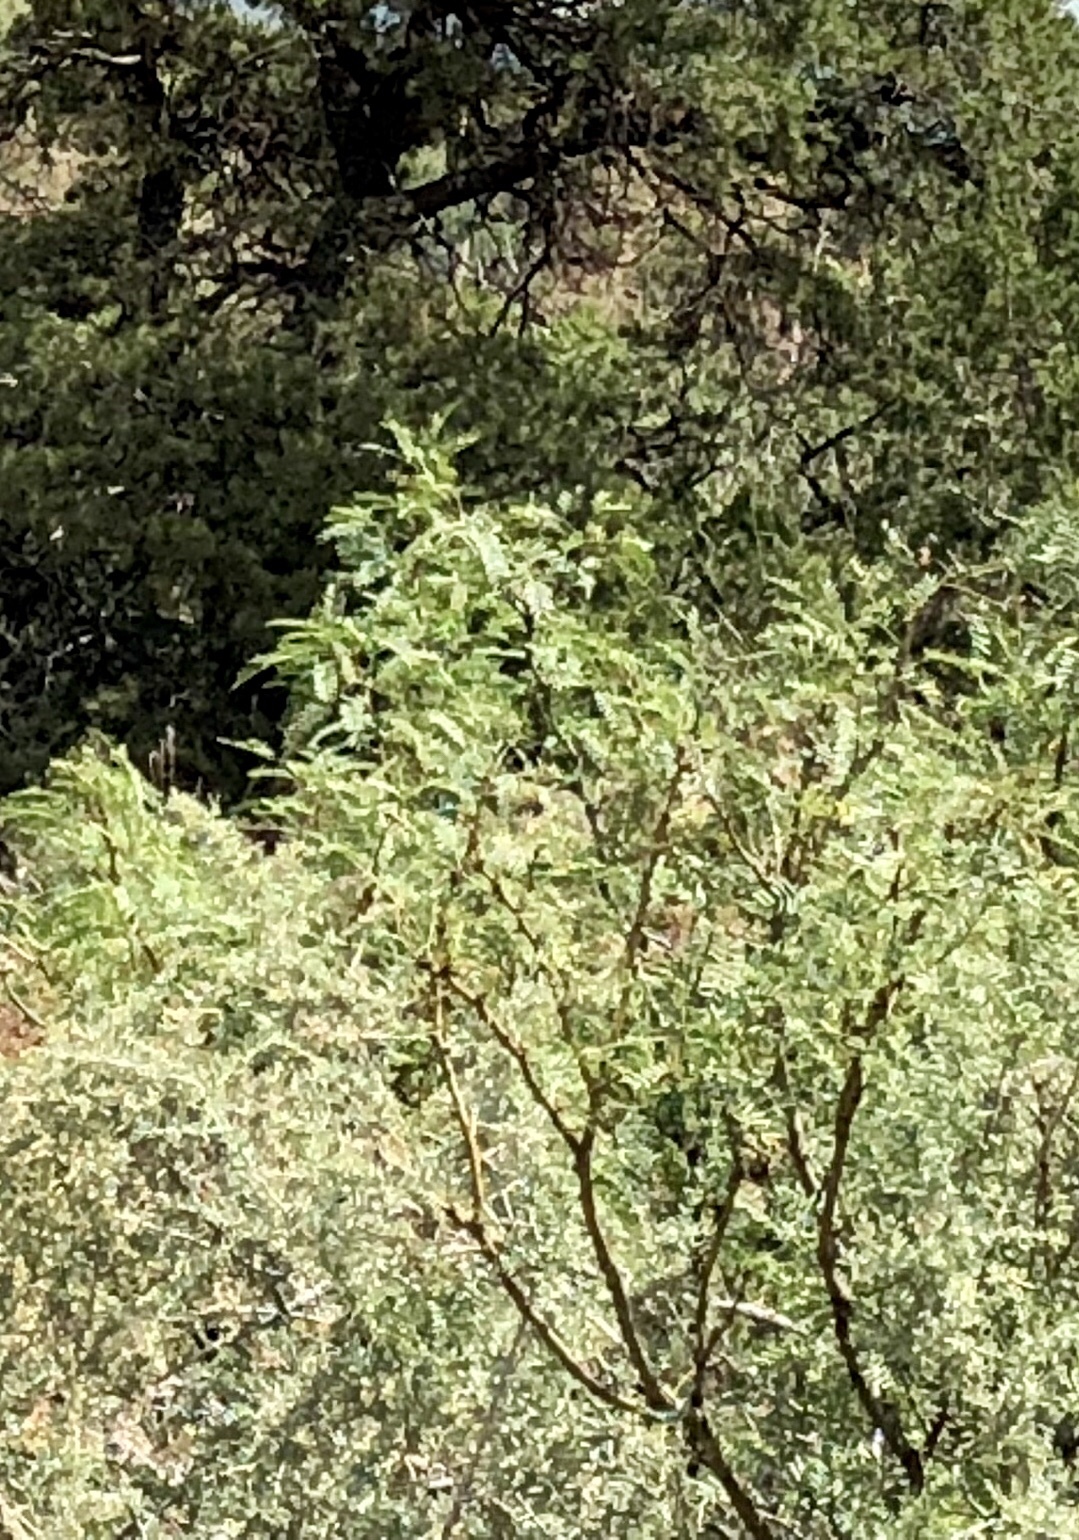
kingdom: Plantae
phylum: Tracheophyta
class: Magnoliopsida
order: Fabales
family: Fabaceae
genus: Prosopis
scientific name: Prosopis glandulosa
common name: Honey mesquite
